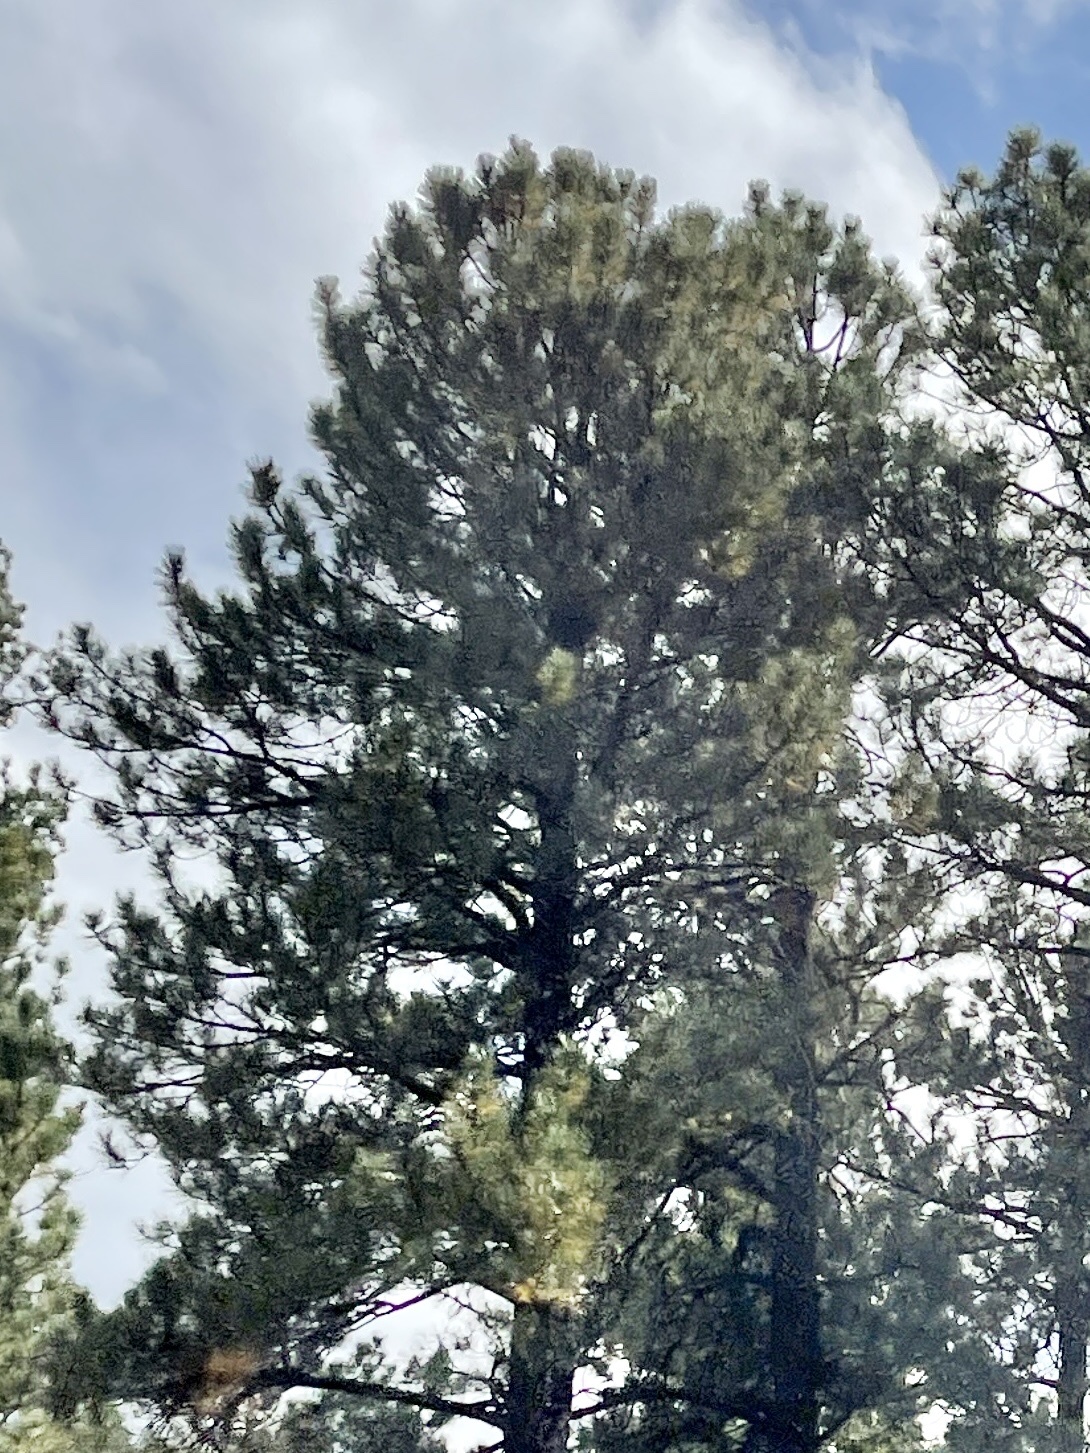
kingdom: Plantae
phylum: Tracheophyta
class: Pinopsida
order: Pinales
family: Pinaceae
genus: Pinus
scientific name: Pinus ponderosa
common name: Western yellow-pine
